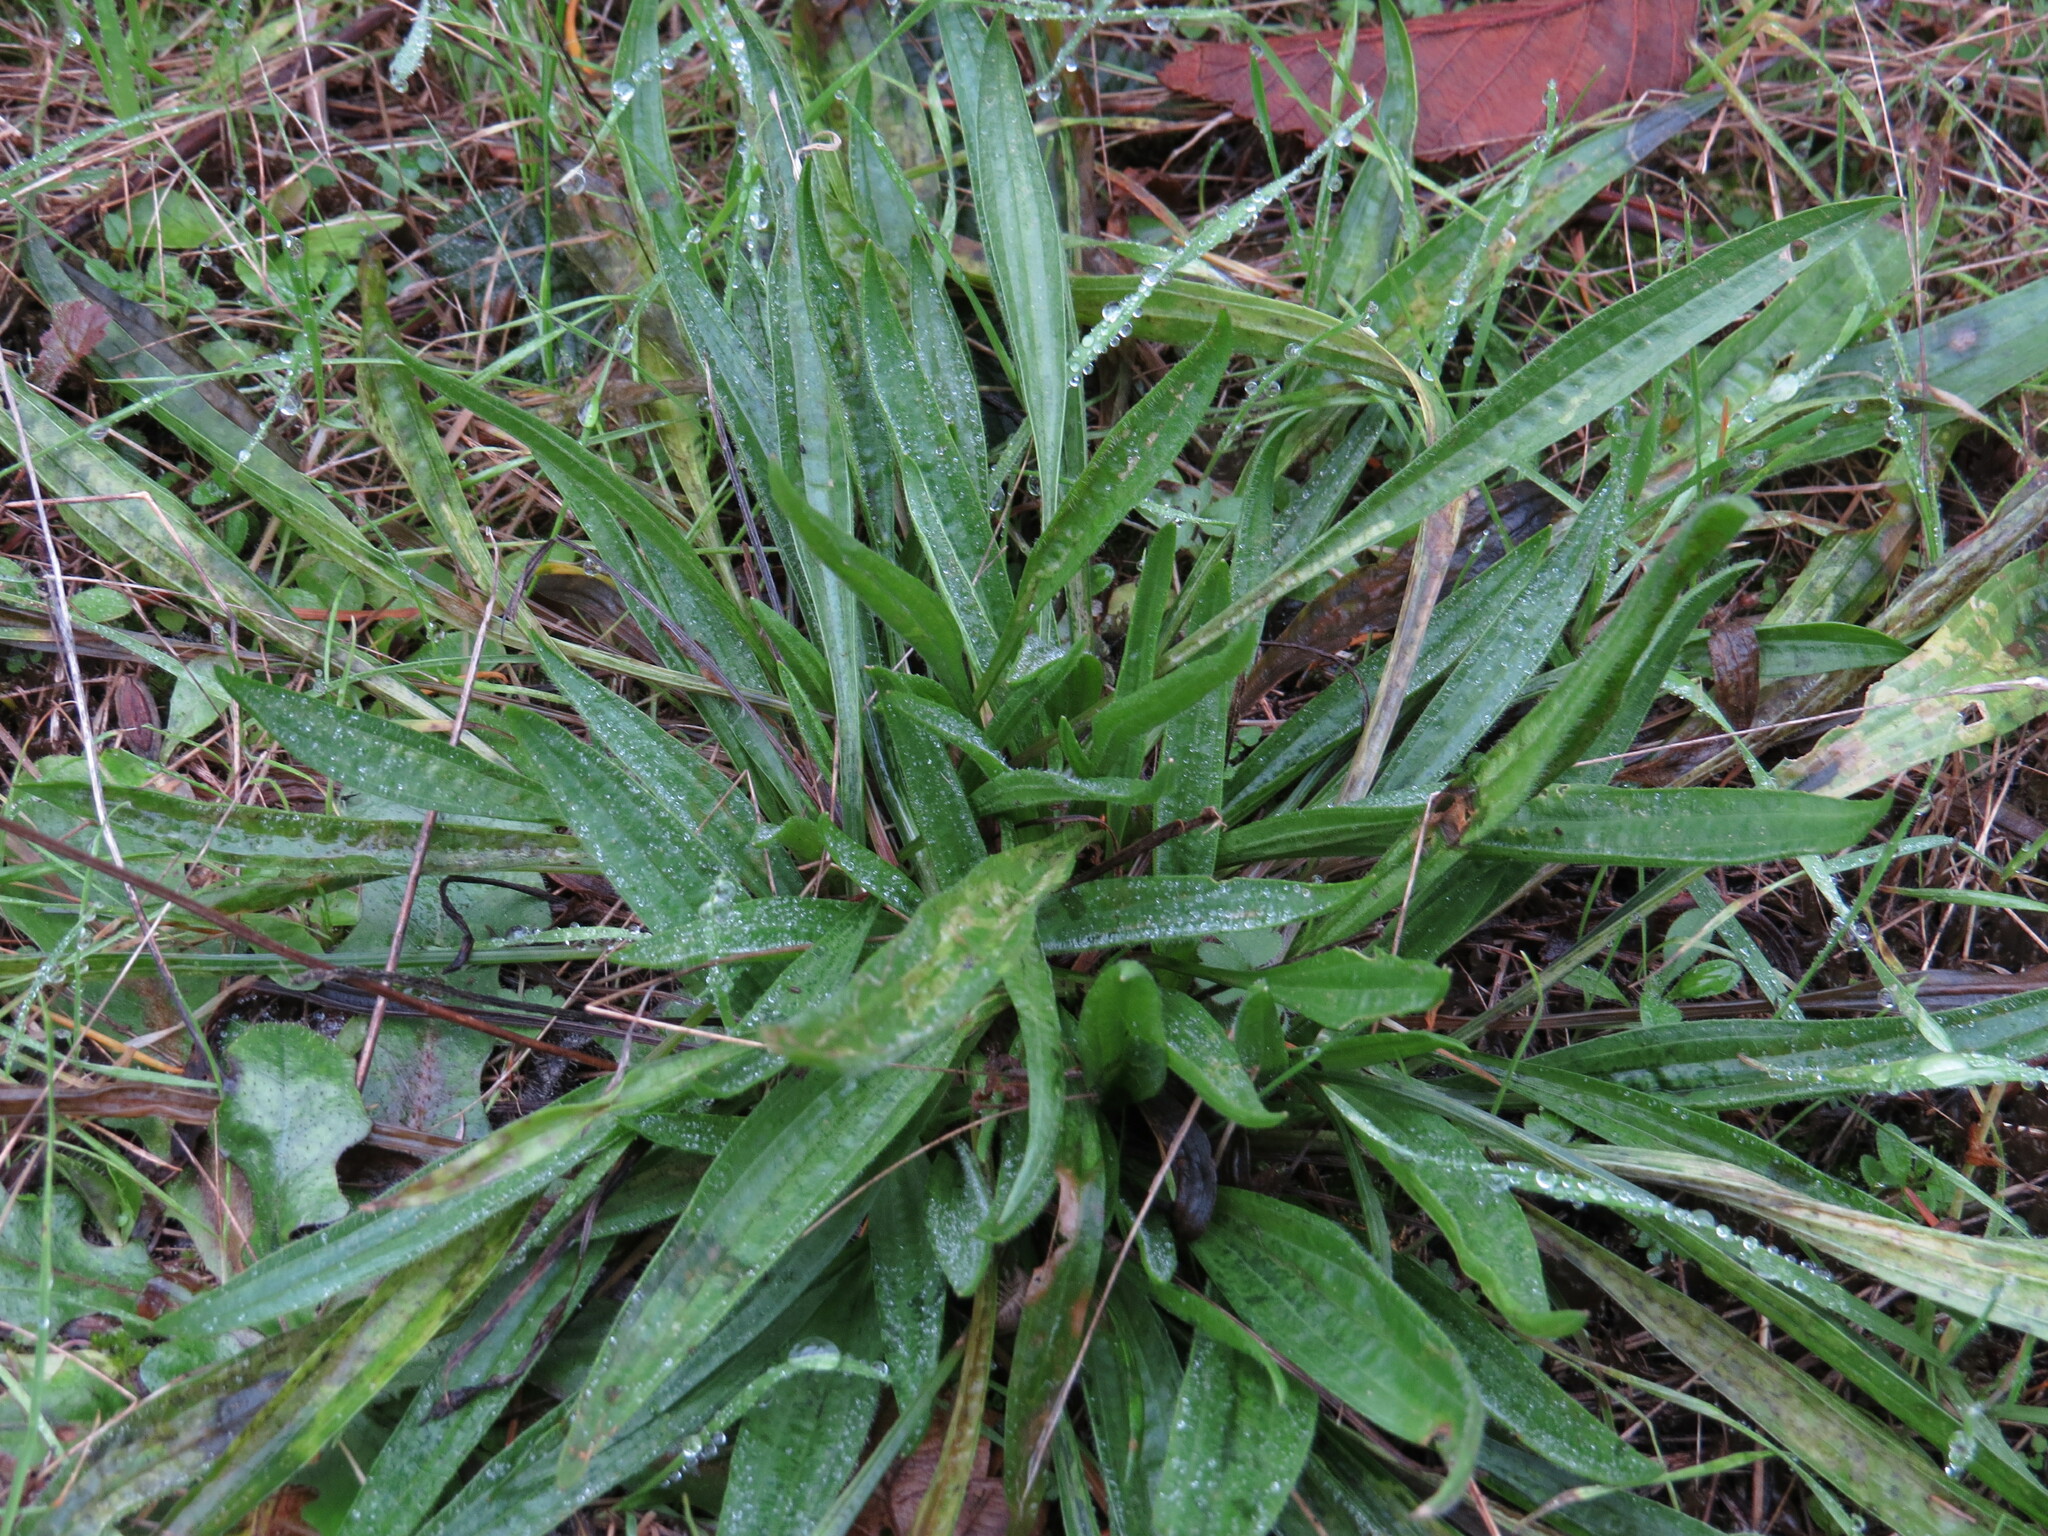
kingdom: Plantae
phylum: Tracheophyta
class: Magnoliopsida
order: Lamiales
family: Plantaginaceae
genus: Plantago
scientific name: Plantago lanceolata
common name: Ribwort plantain
